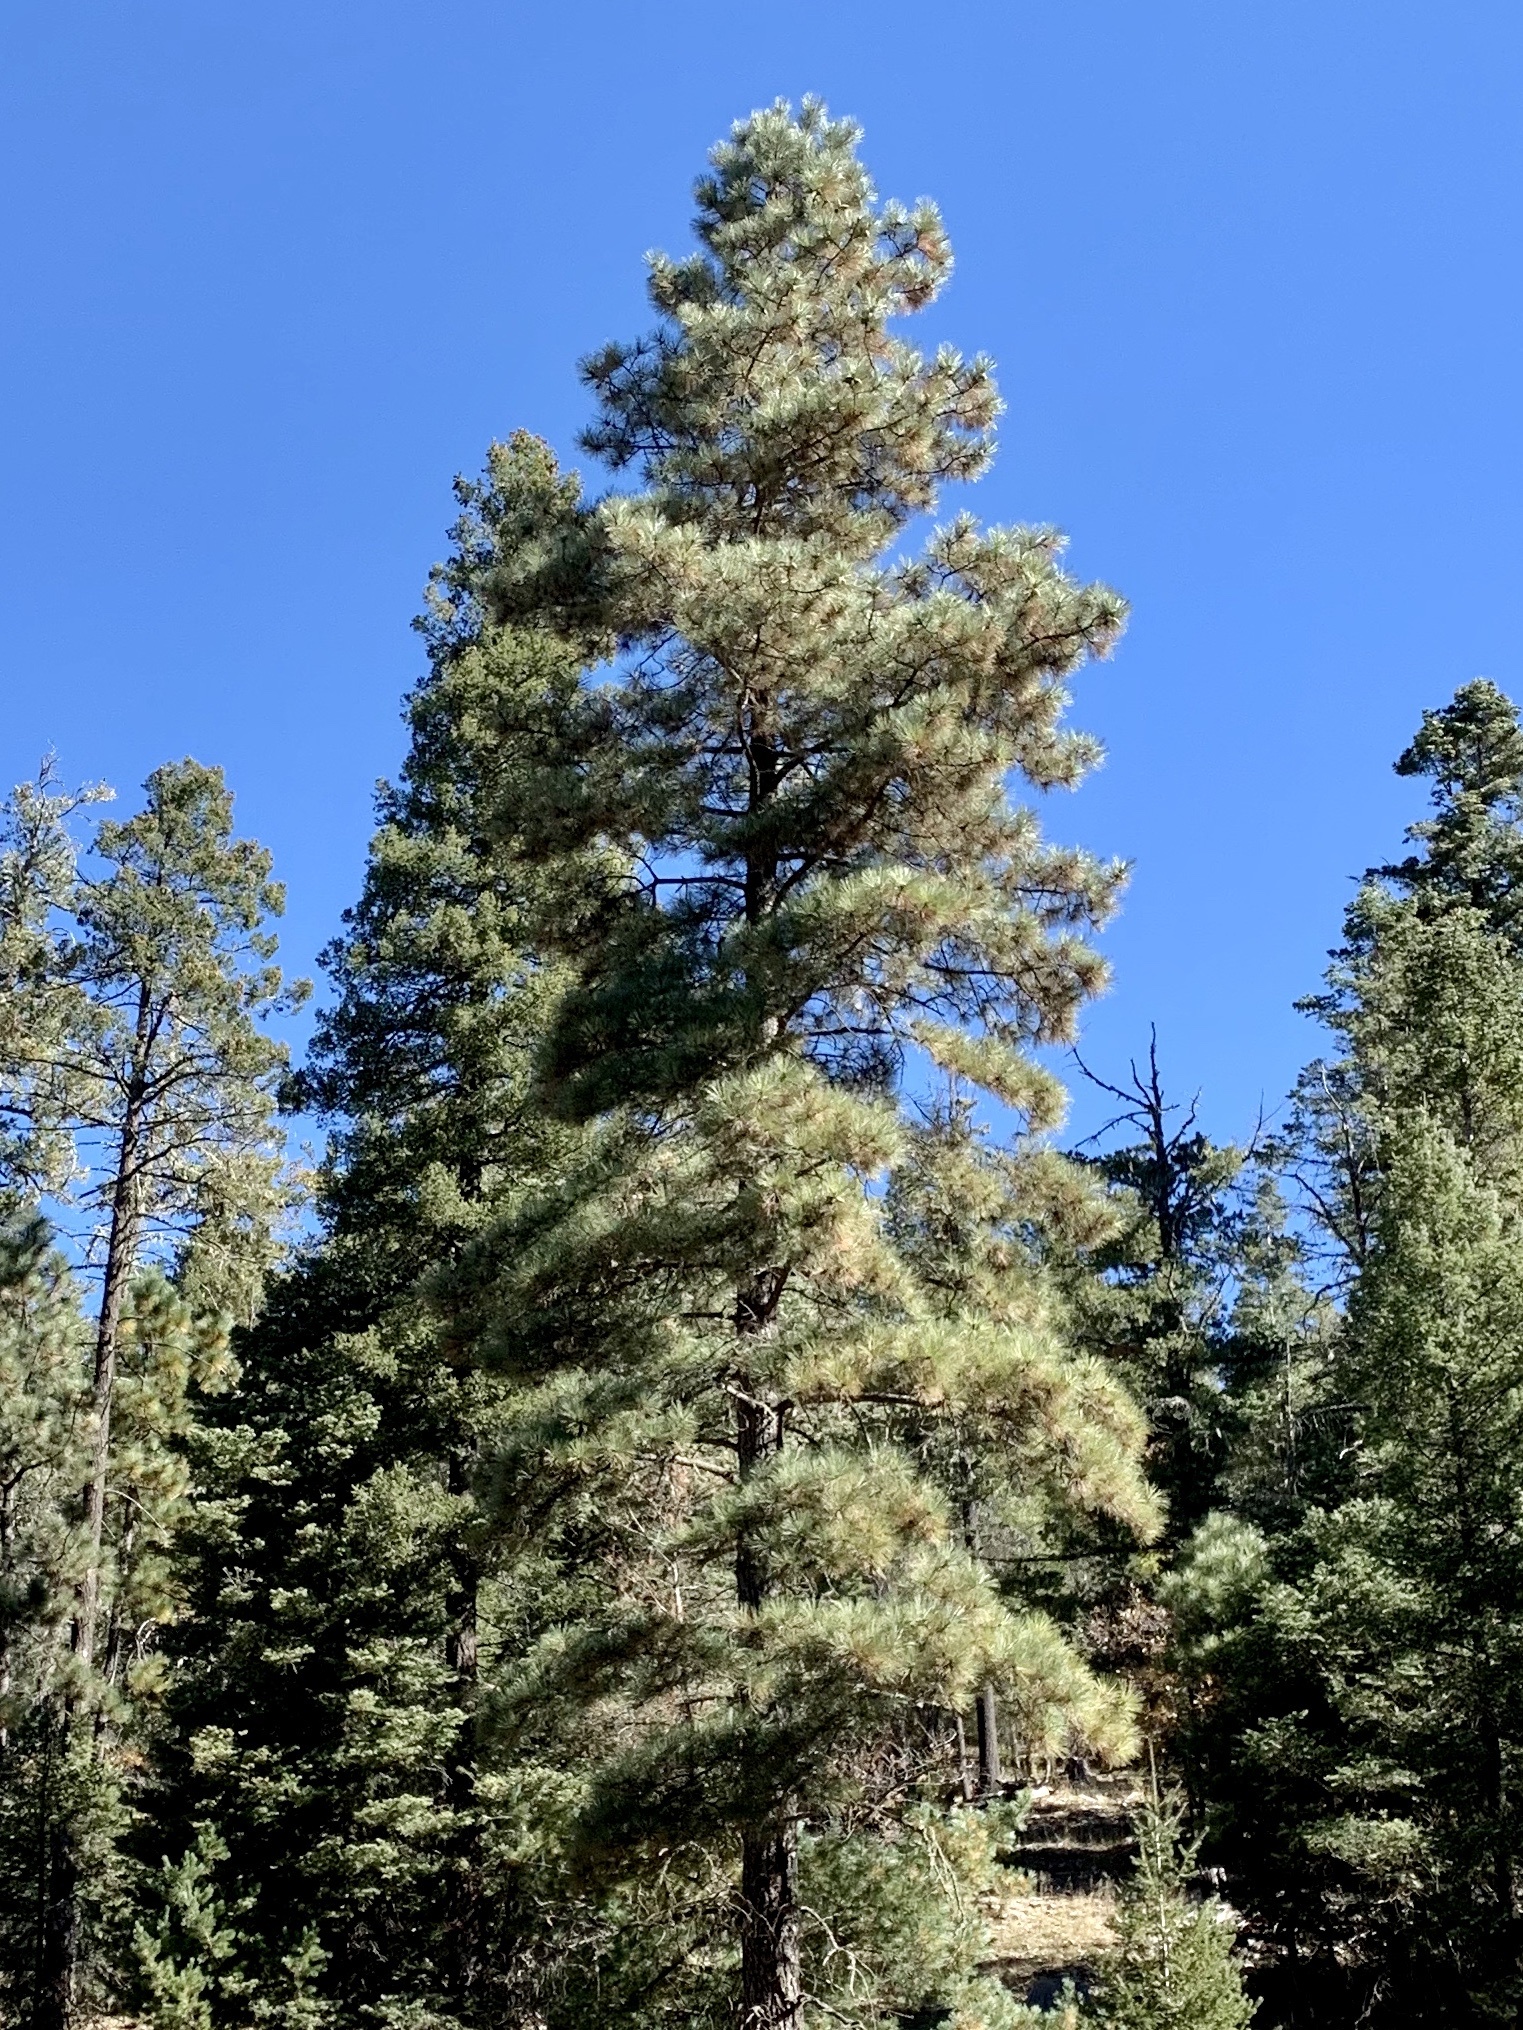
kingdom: Plantae
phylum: Tracheophyta
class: Pinopsida
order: Pinales
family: Pinaceae
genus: Pinus
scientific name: Pinus ponderosa
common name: Western yellow-pine
